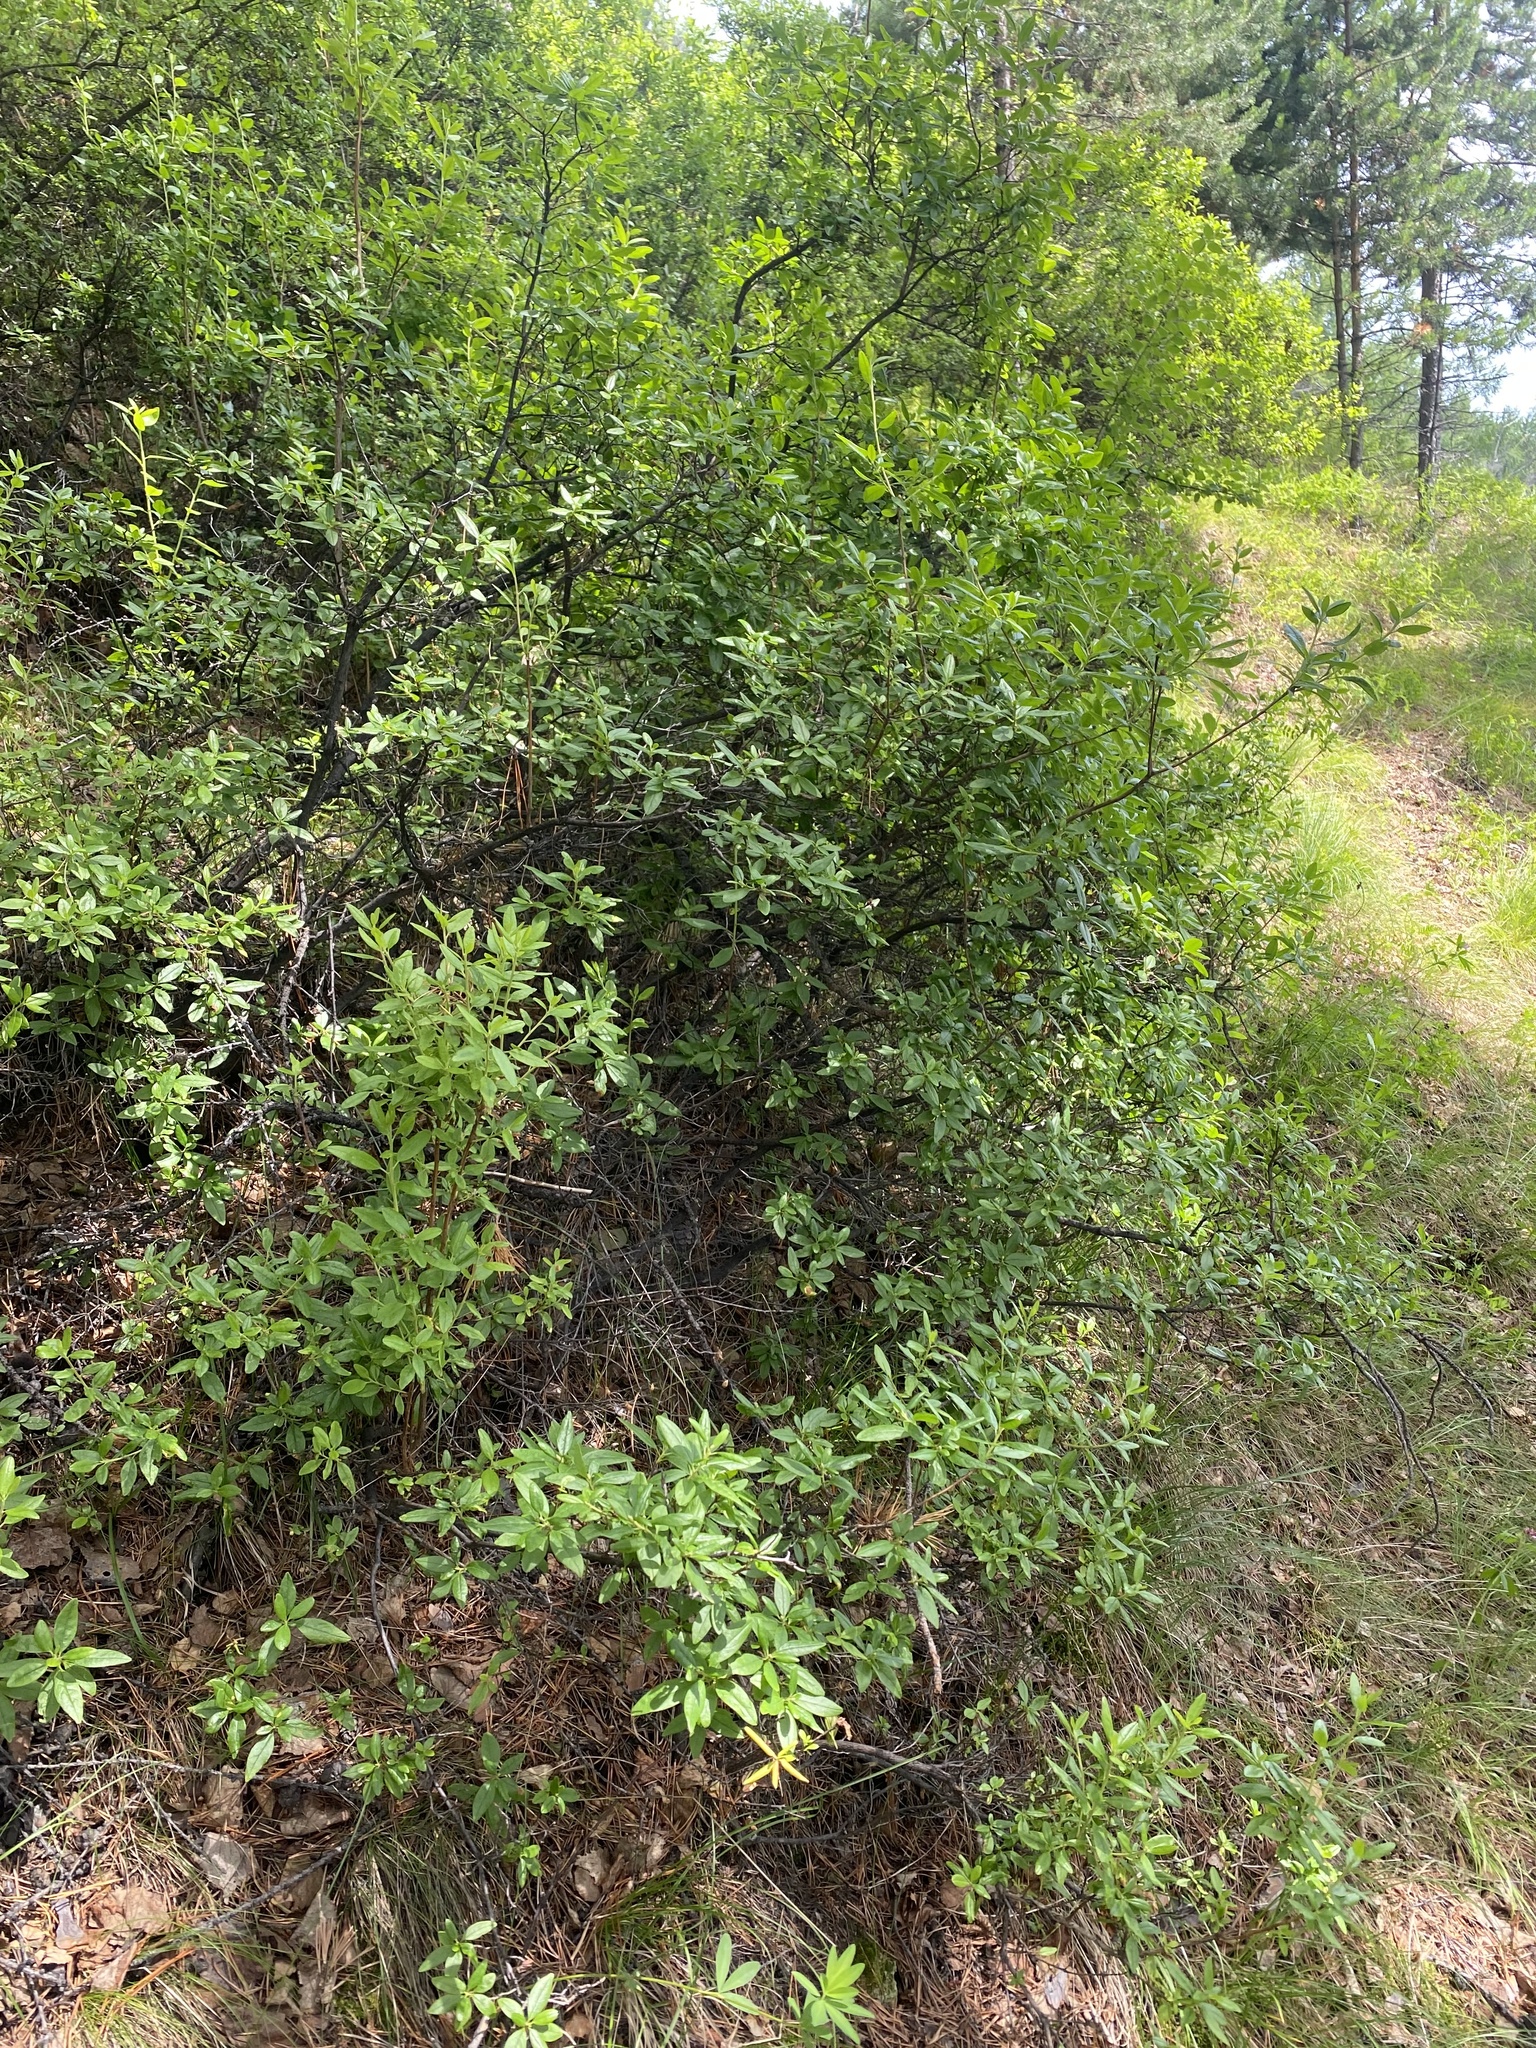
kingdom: Plantae
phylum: Tracheophyta
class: Magnoliopsida
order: Ericales
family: Ericaceae
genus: Rhododendron
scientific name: Rhododendron dauricum
